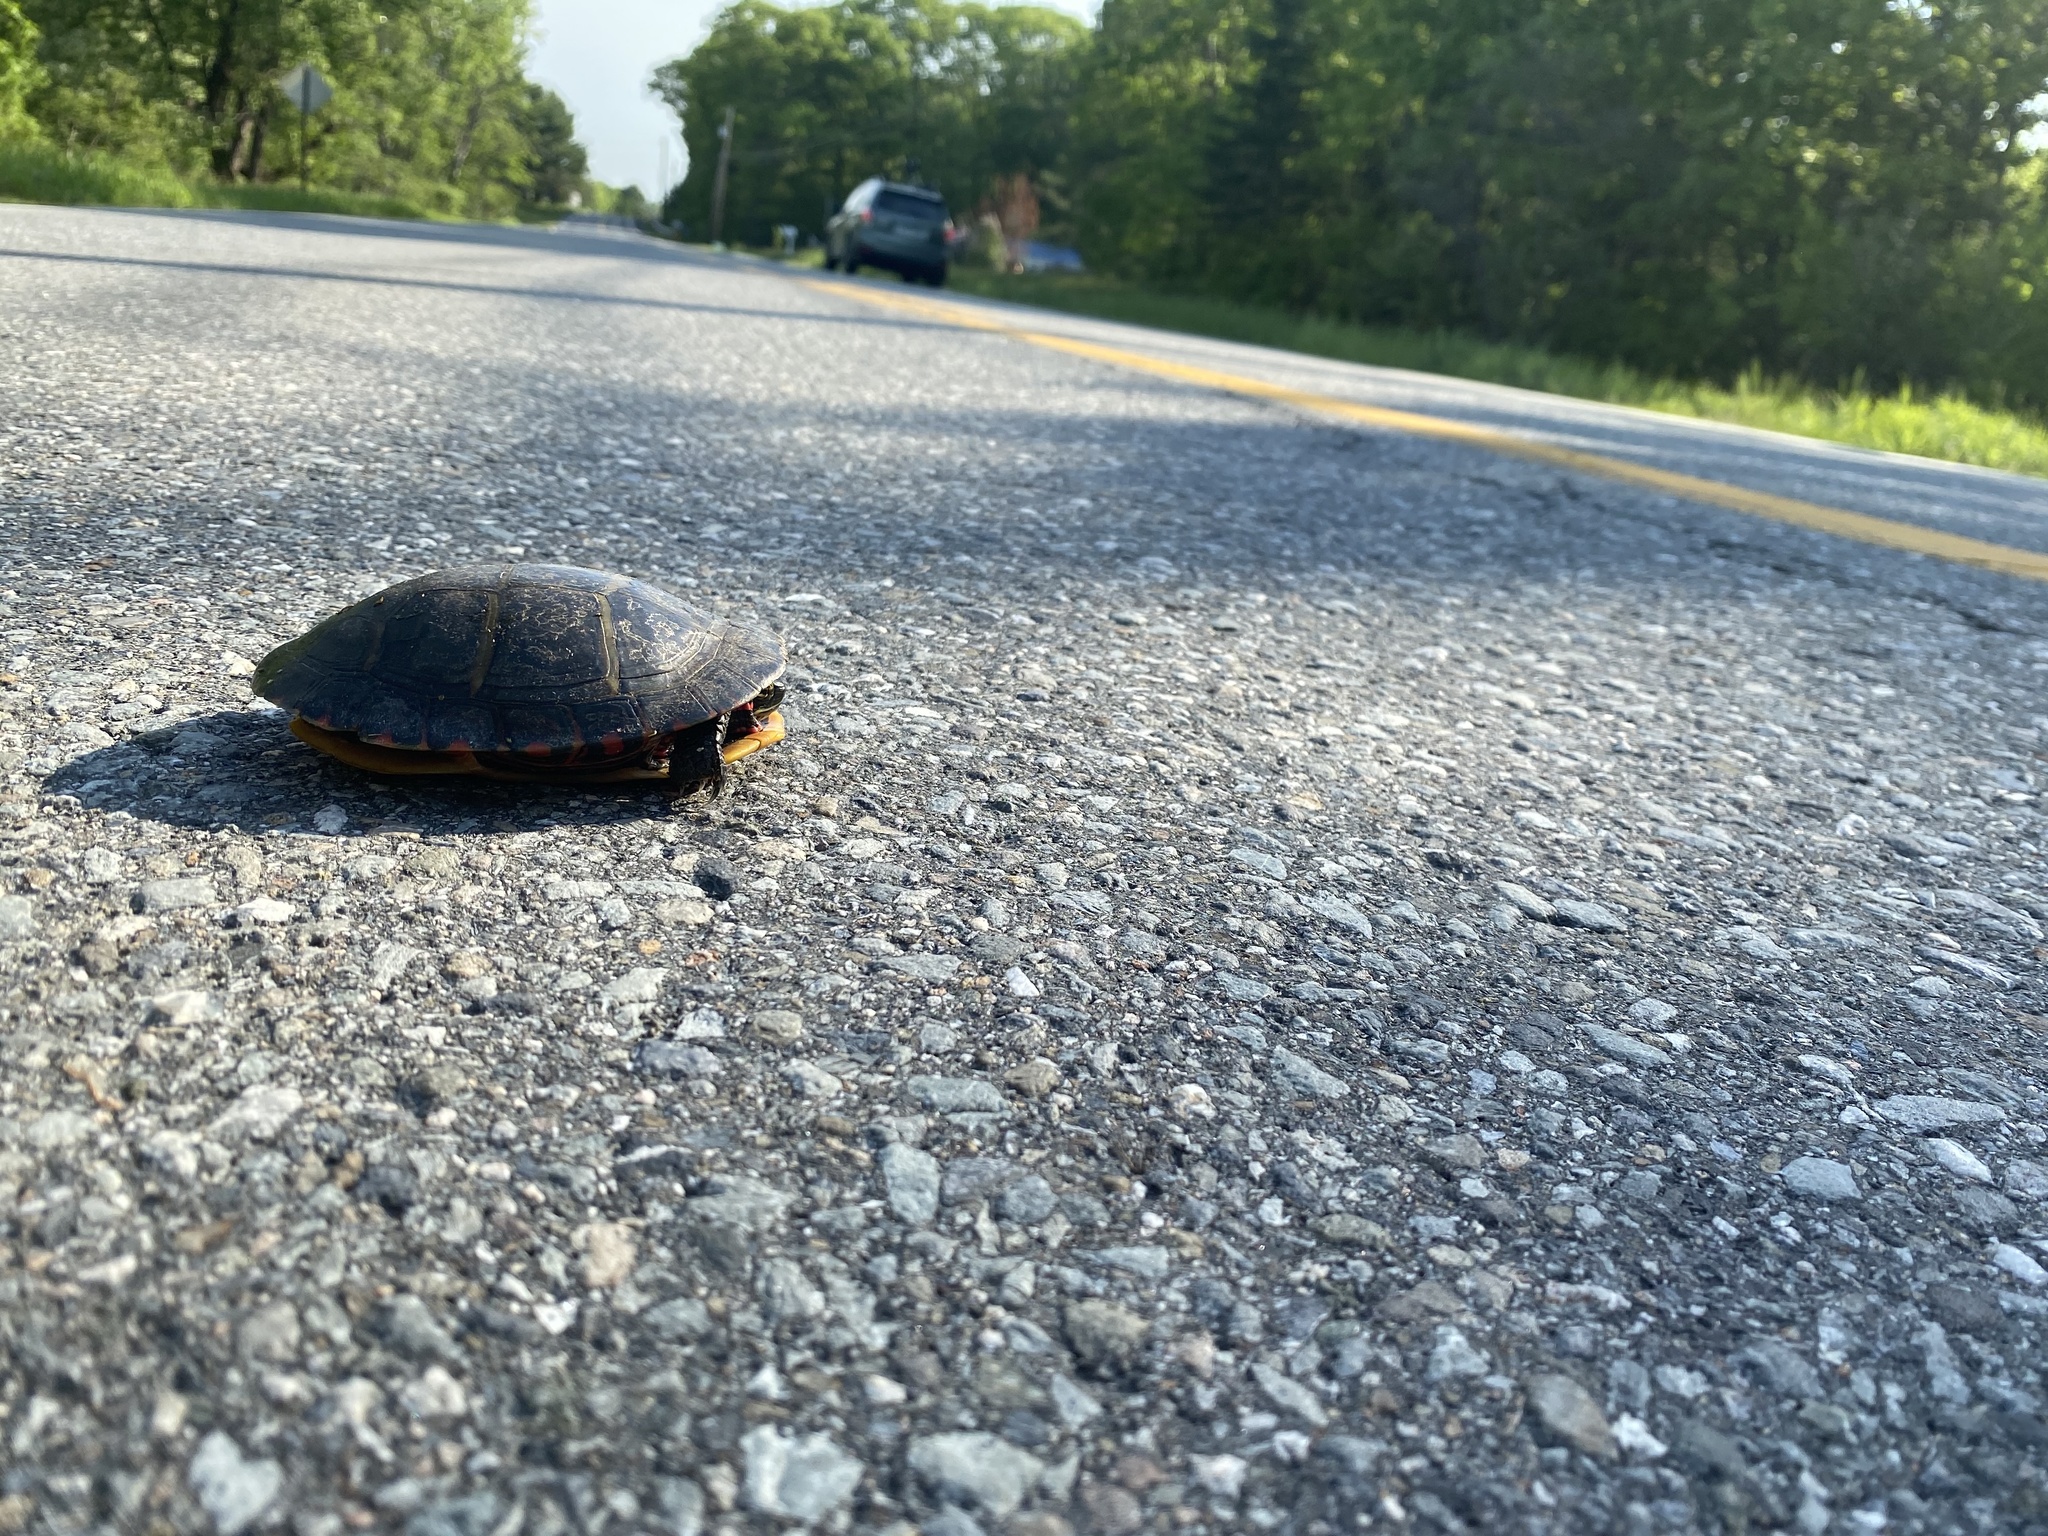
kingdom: Animalia
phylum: Chordata
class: Testudines
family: Emydidae
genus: Chrysemys
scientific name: Chrysemys picta
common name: Painted turtle
